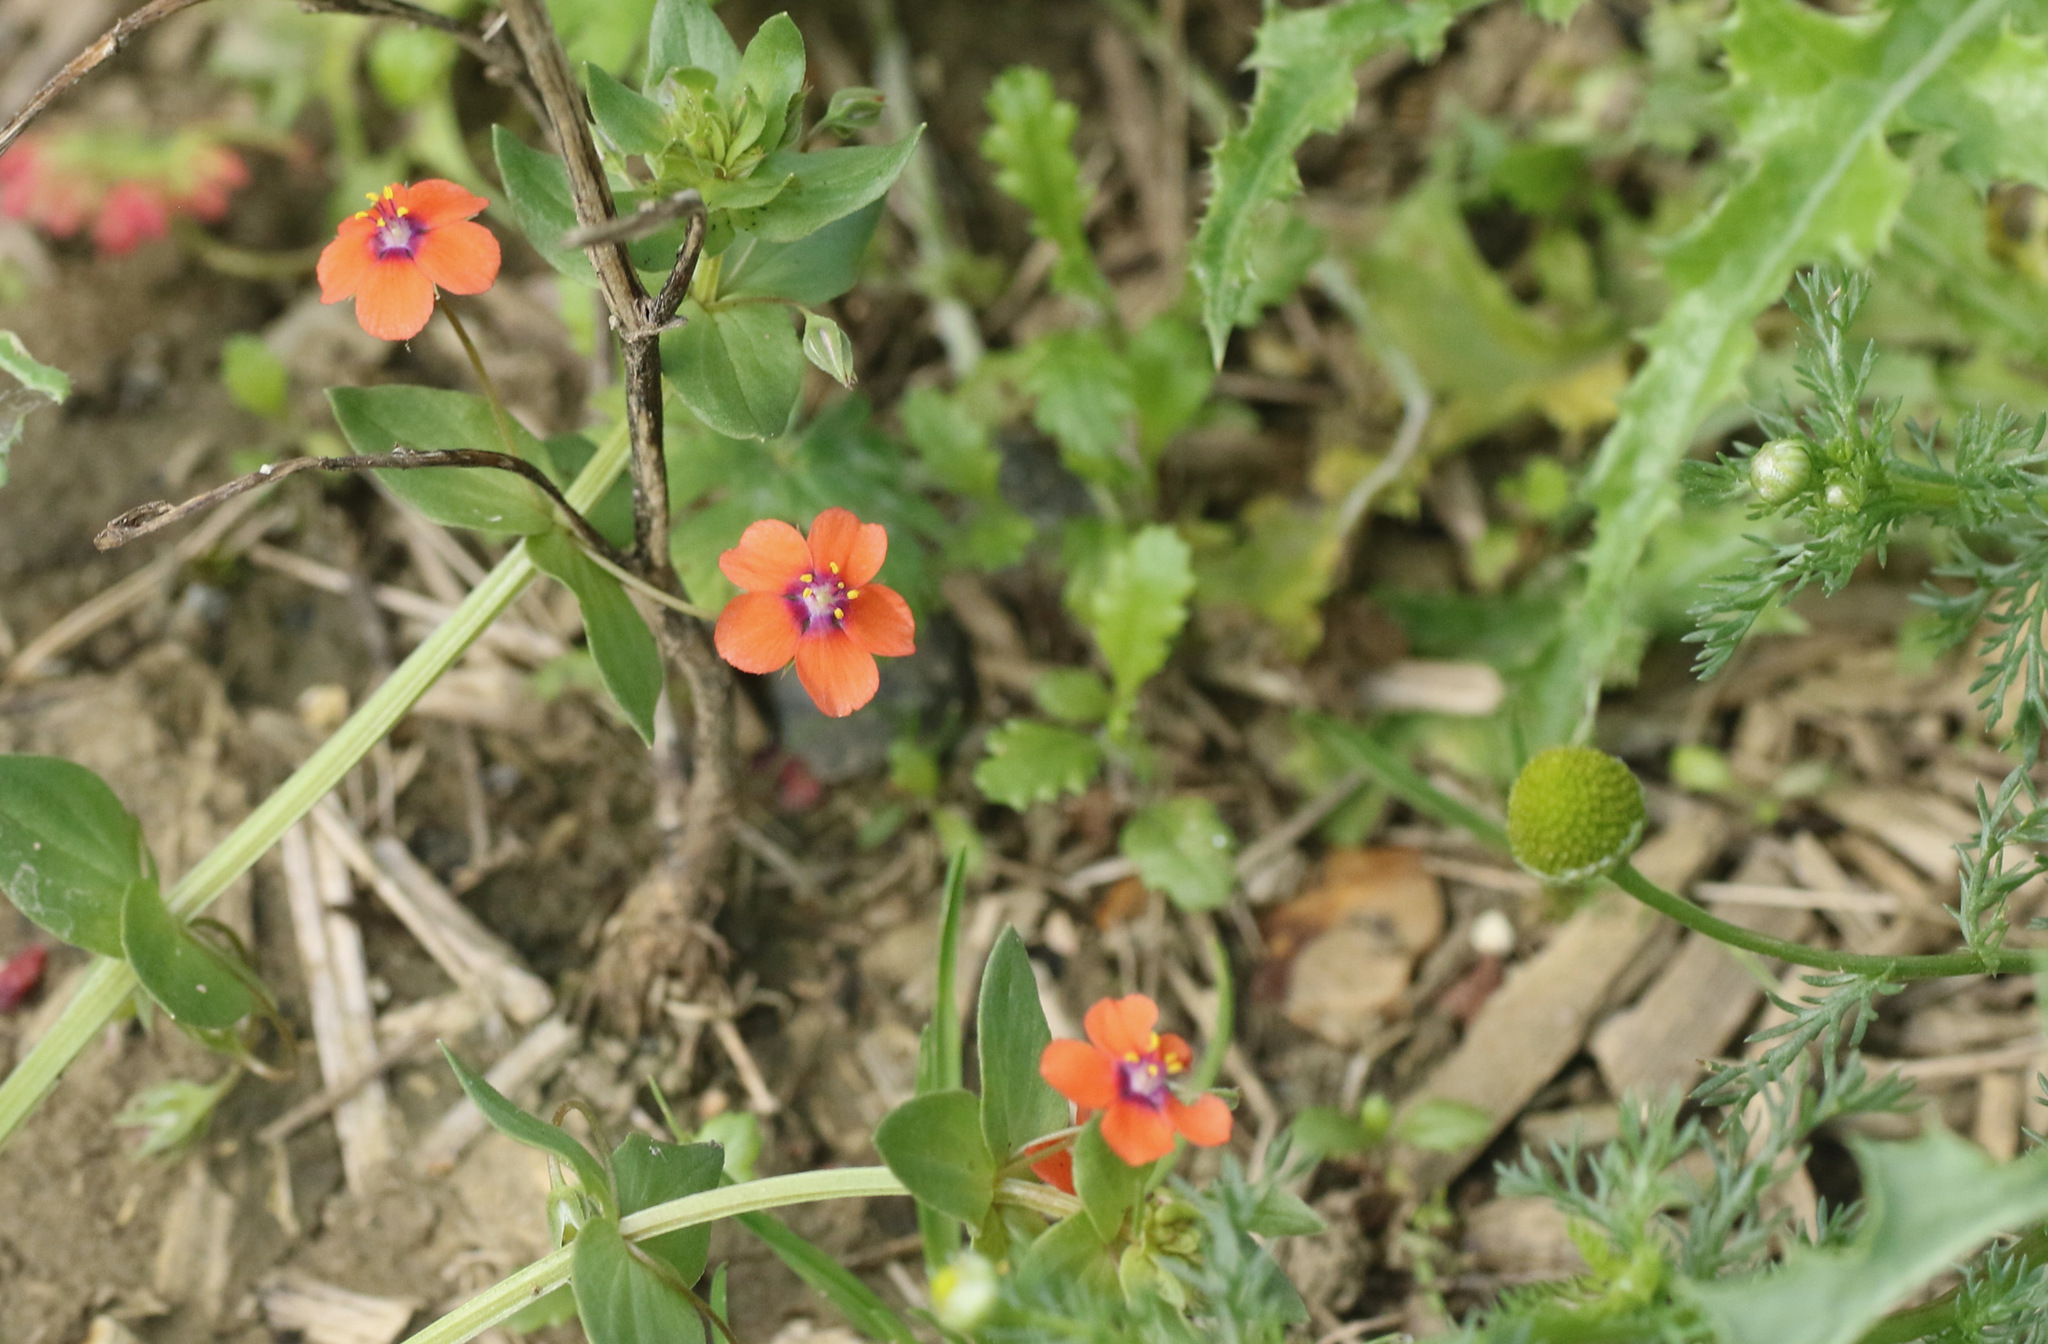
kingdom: Plantae
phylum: Tracheophyta
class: Magnoliopsida
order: Ericales
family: Primulaceae
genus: Lysimachia
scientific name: Lysimachia arvensis
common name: Scarlet pimpernel
